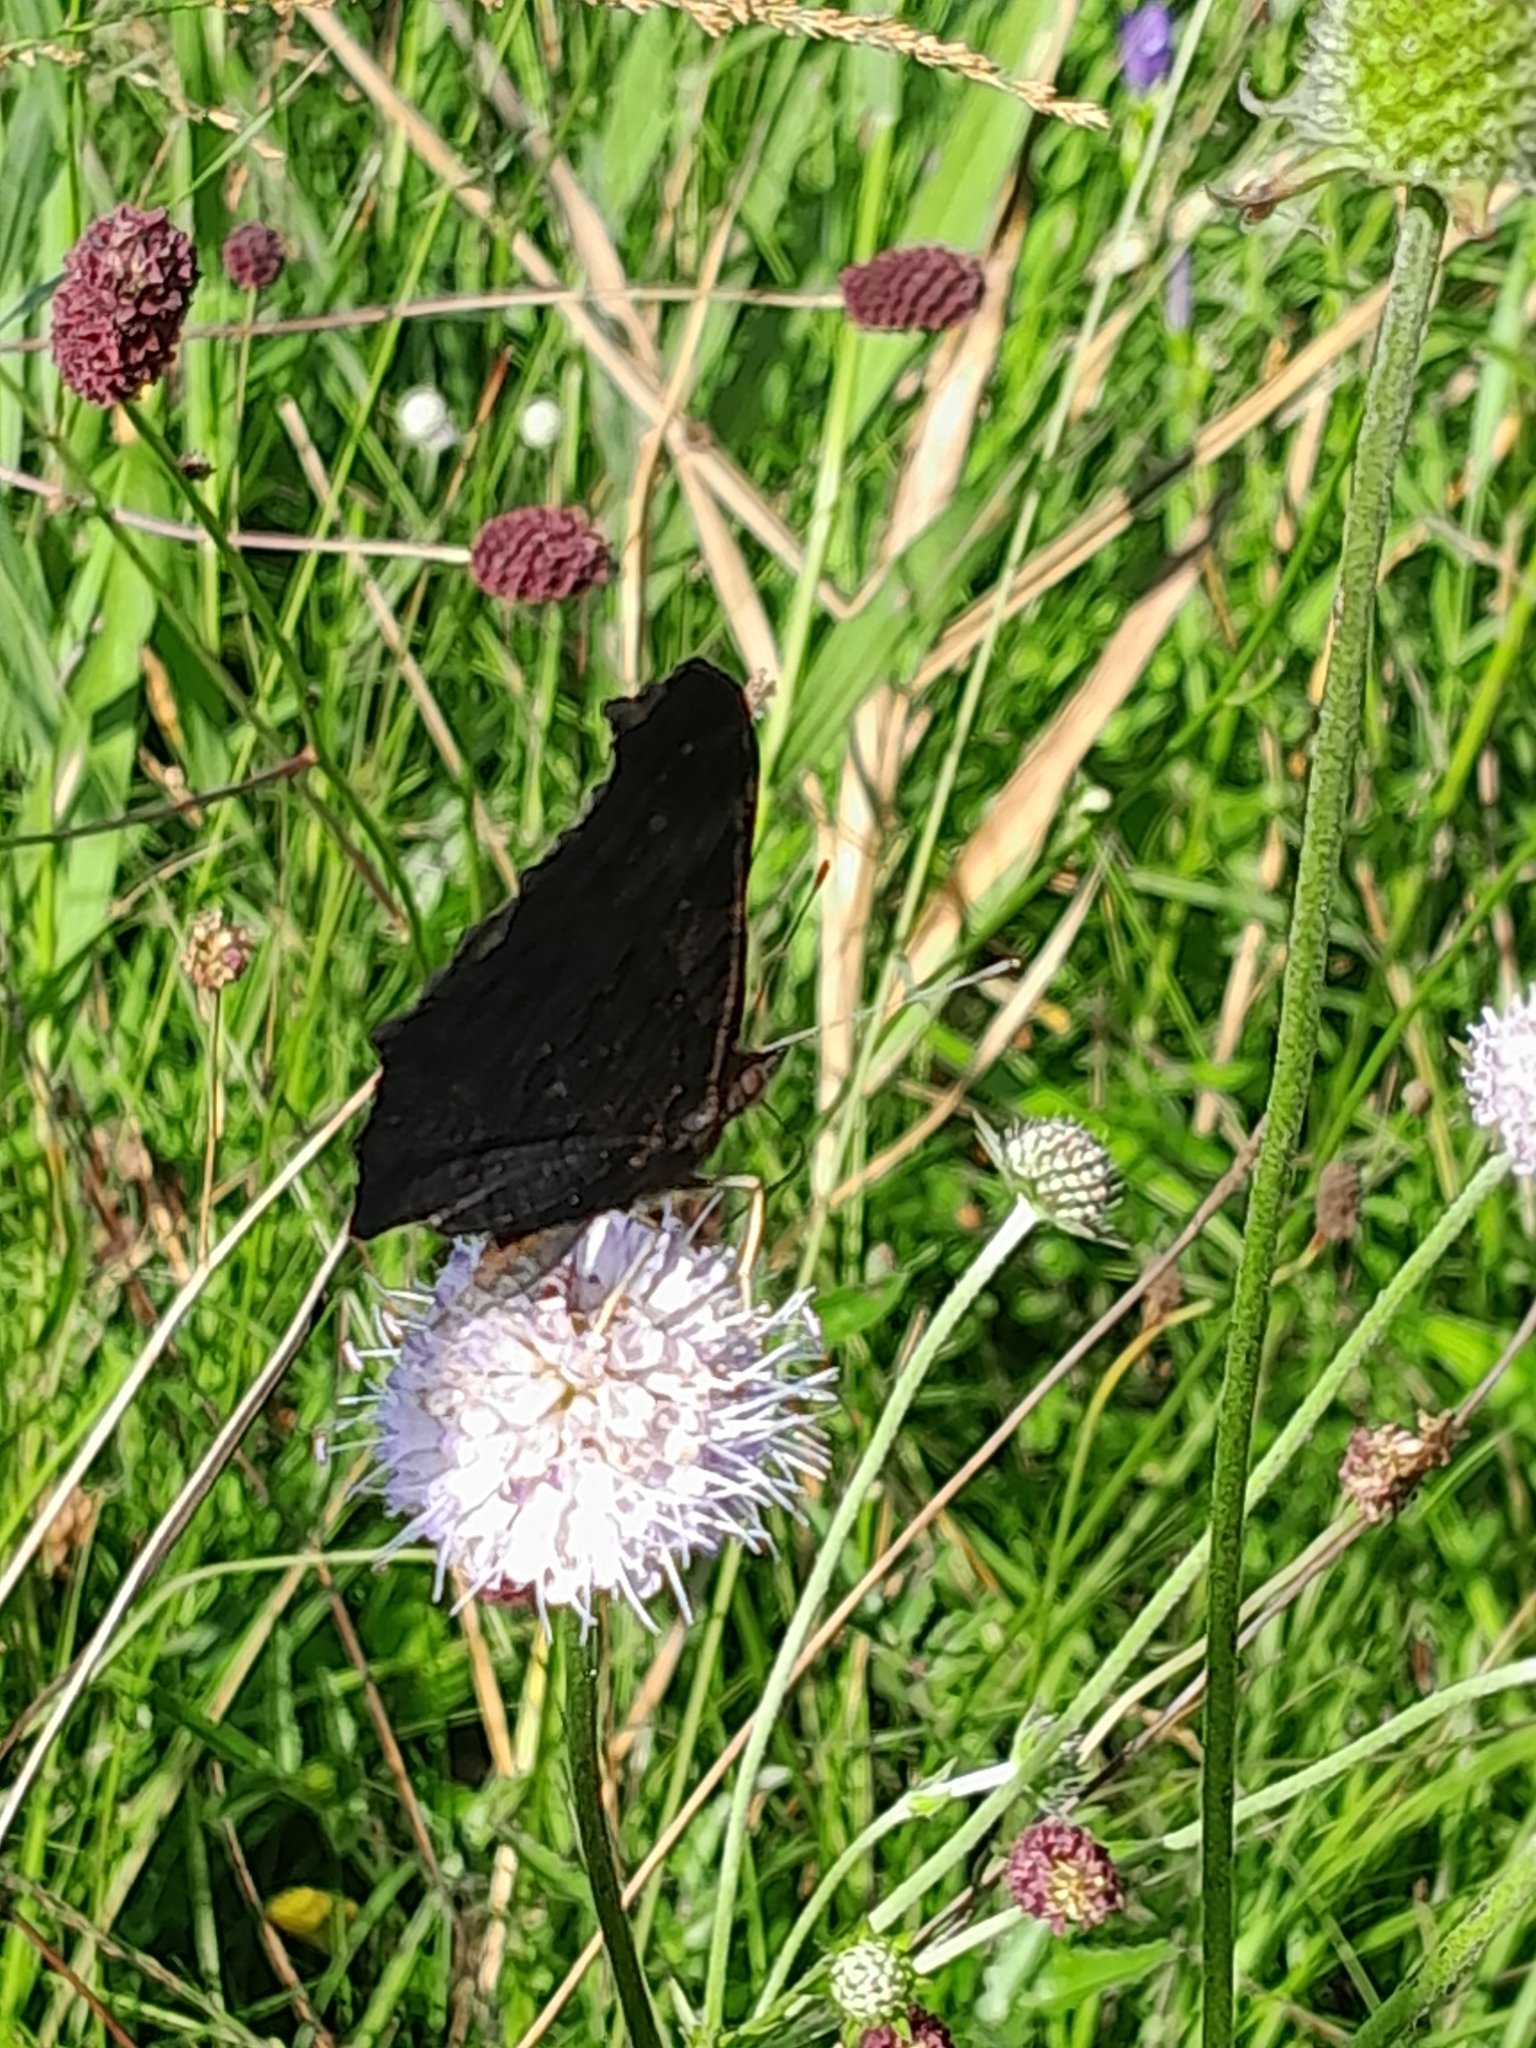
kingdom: Animalia
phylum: Arthropoda
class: Insecta
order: Lepidoptera
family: Nymphalidae
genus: Aglais
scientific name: Aglais io
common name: Peacock
